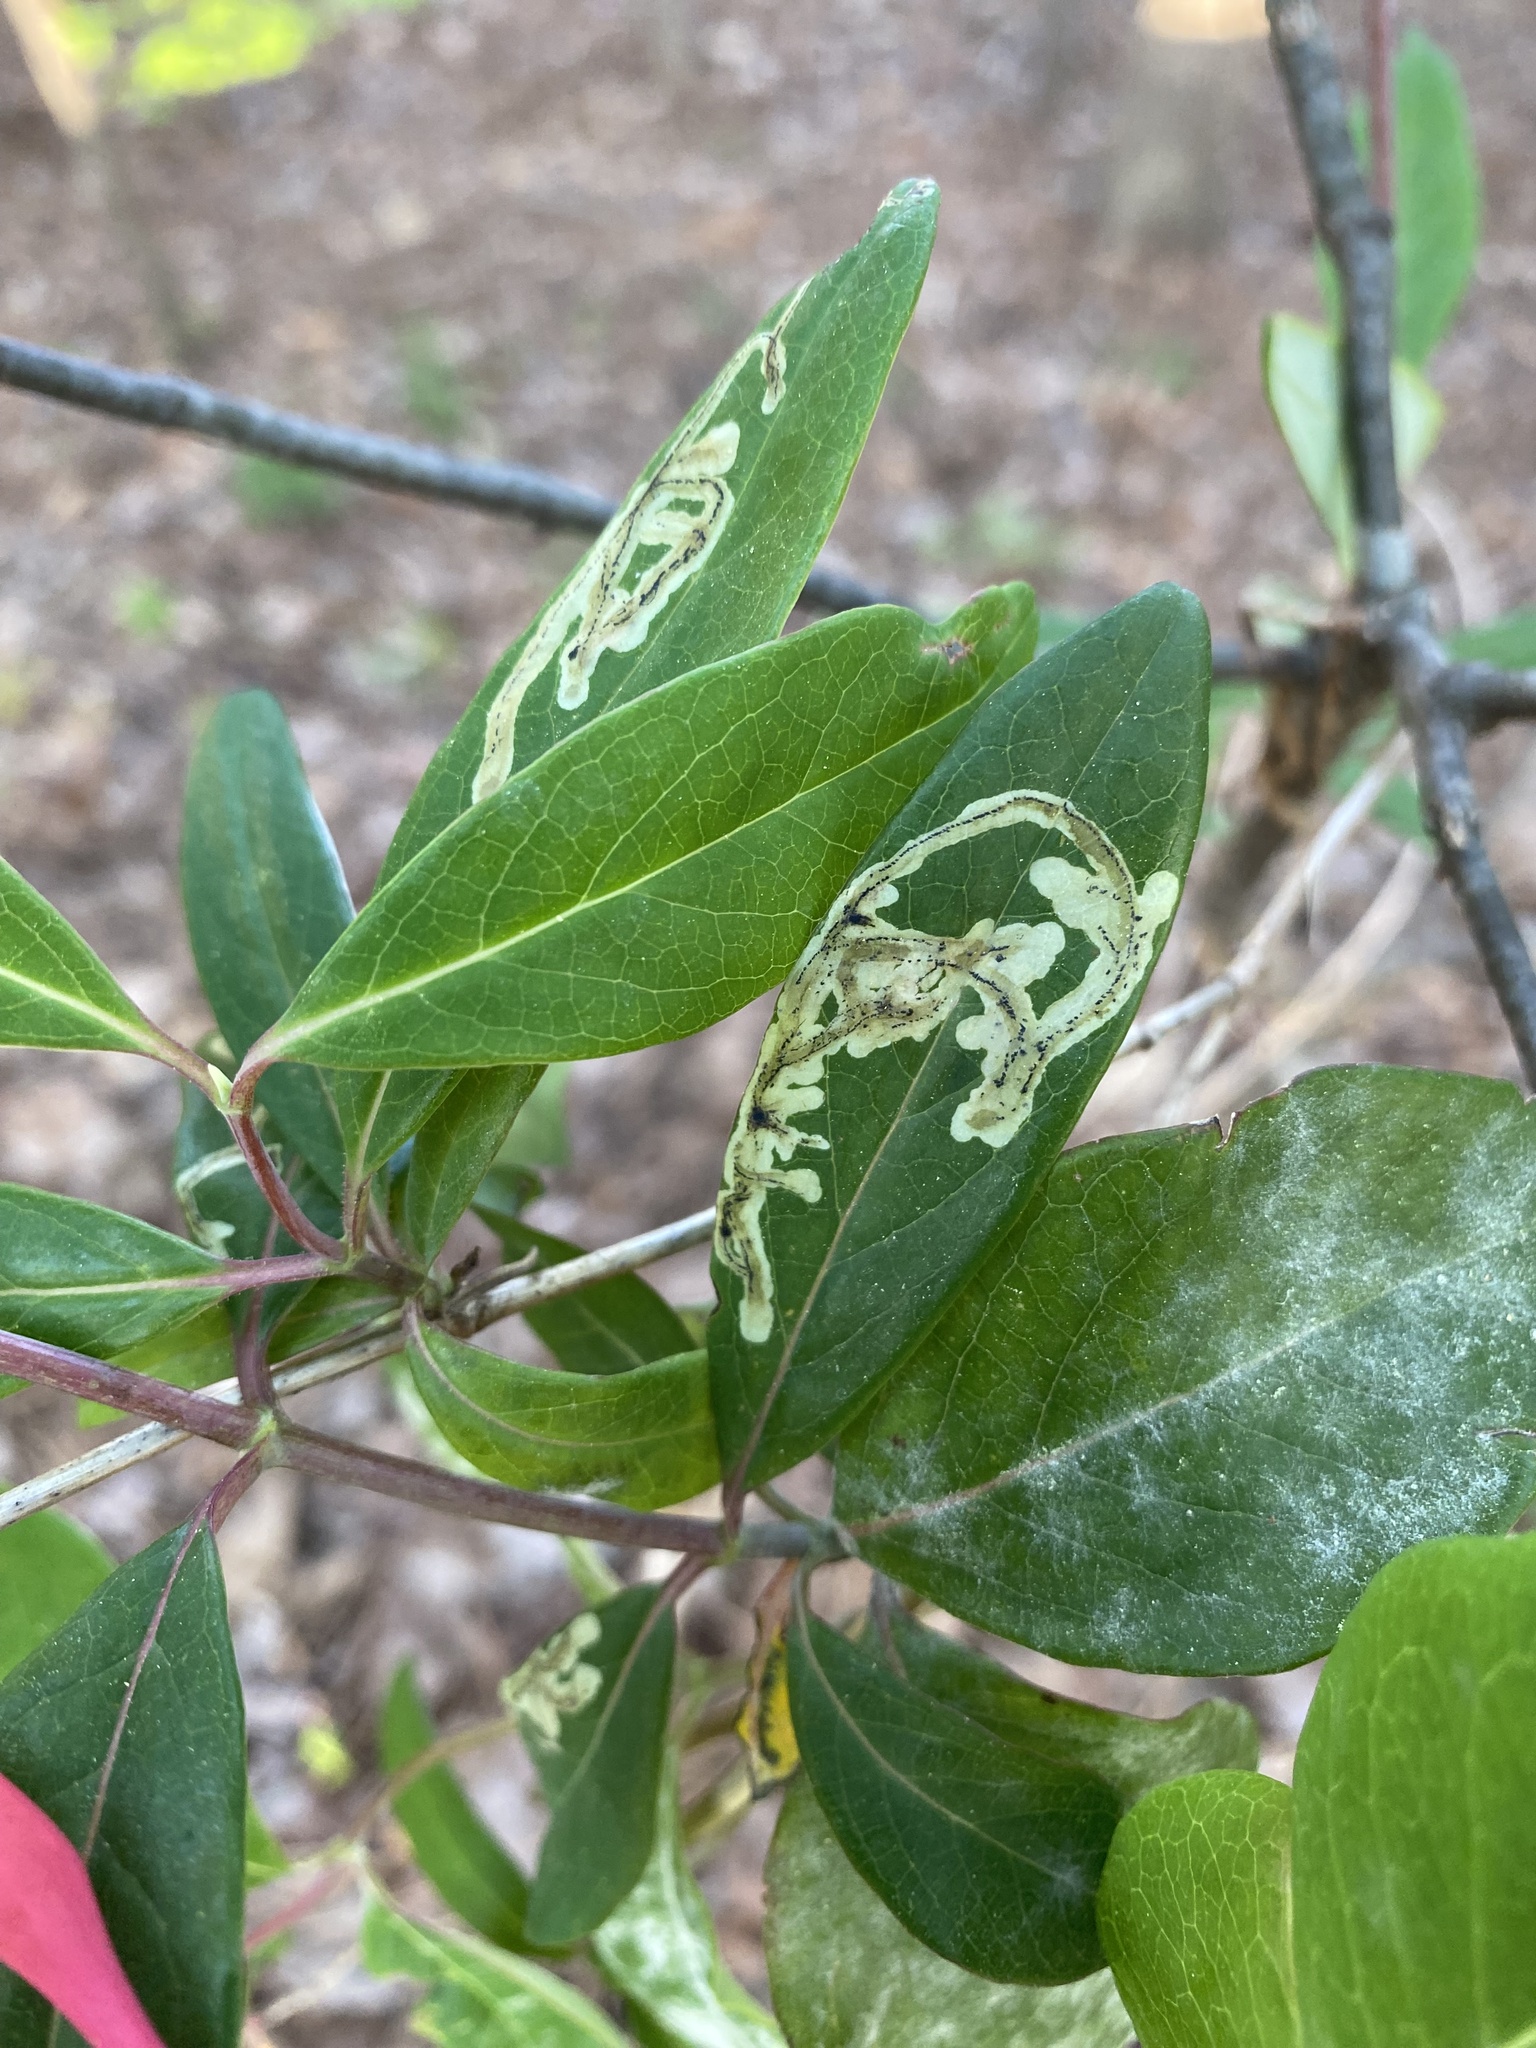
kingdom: Animalia
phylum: Arthropoda
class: Insecta
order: Diptera
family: Agromyzidae
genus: Phytomyza
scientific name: Phytomyza sempervirentis
